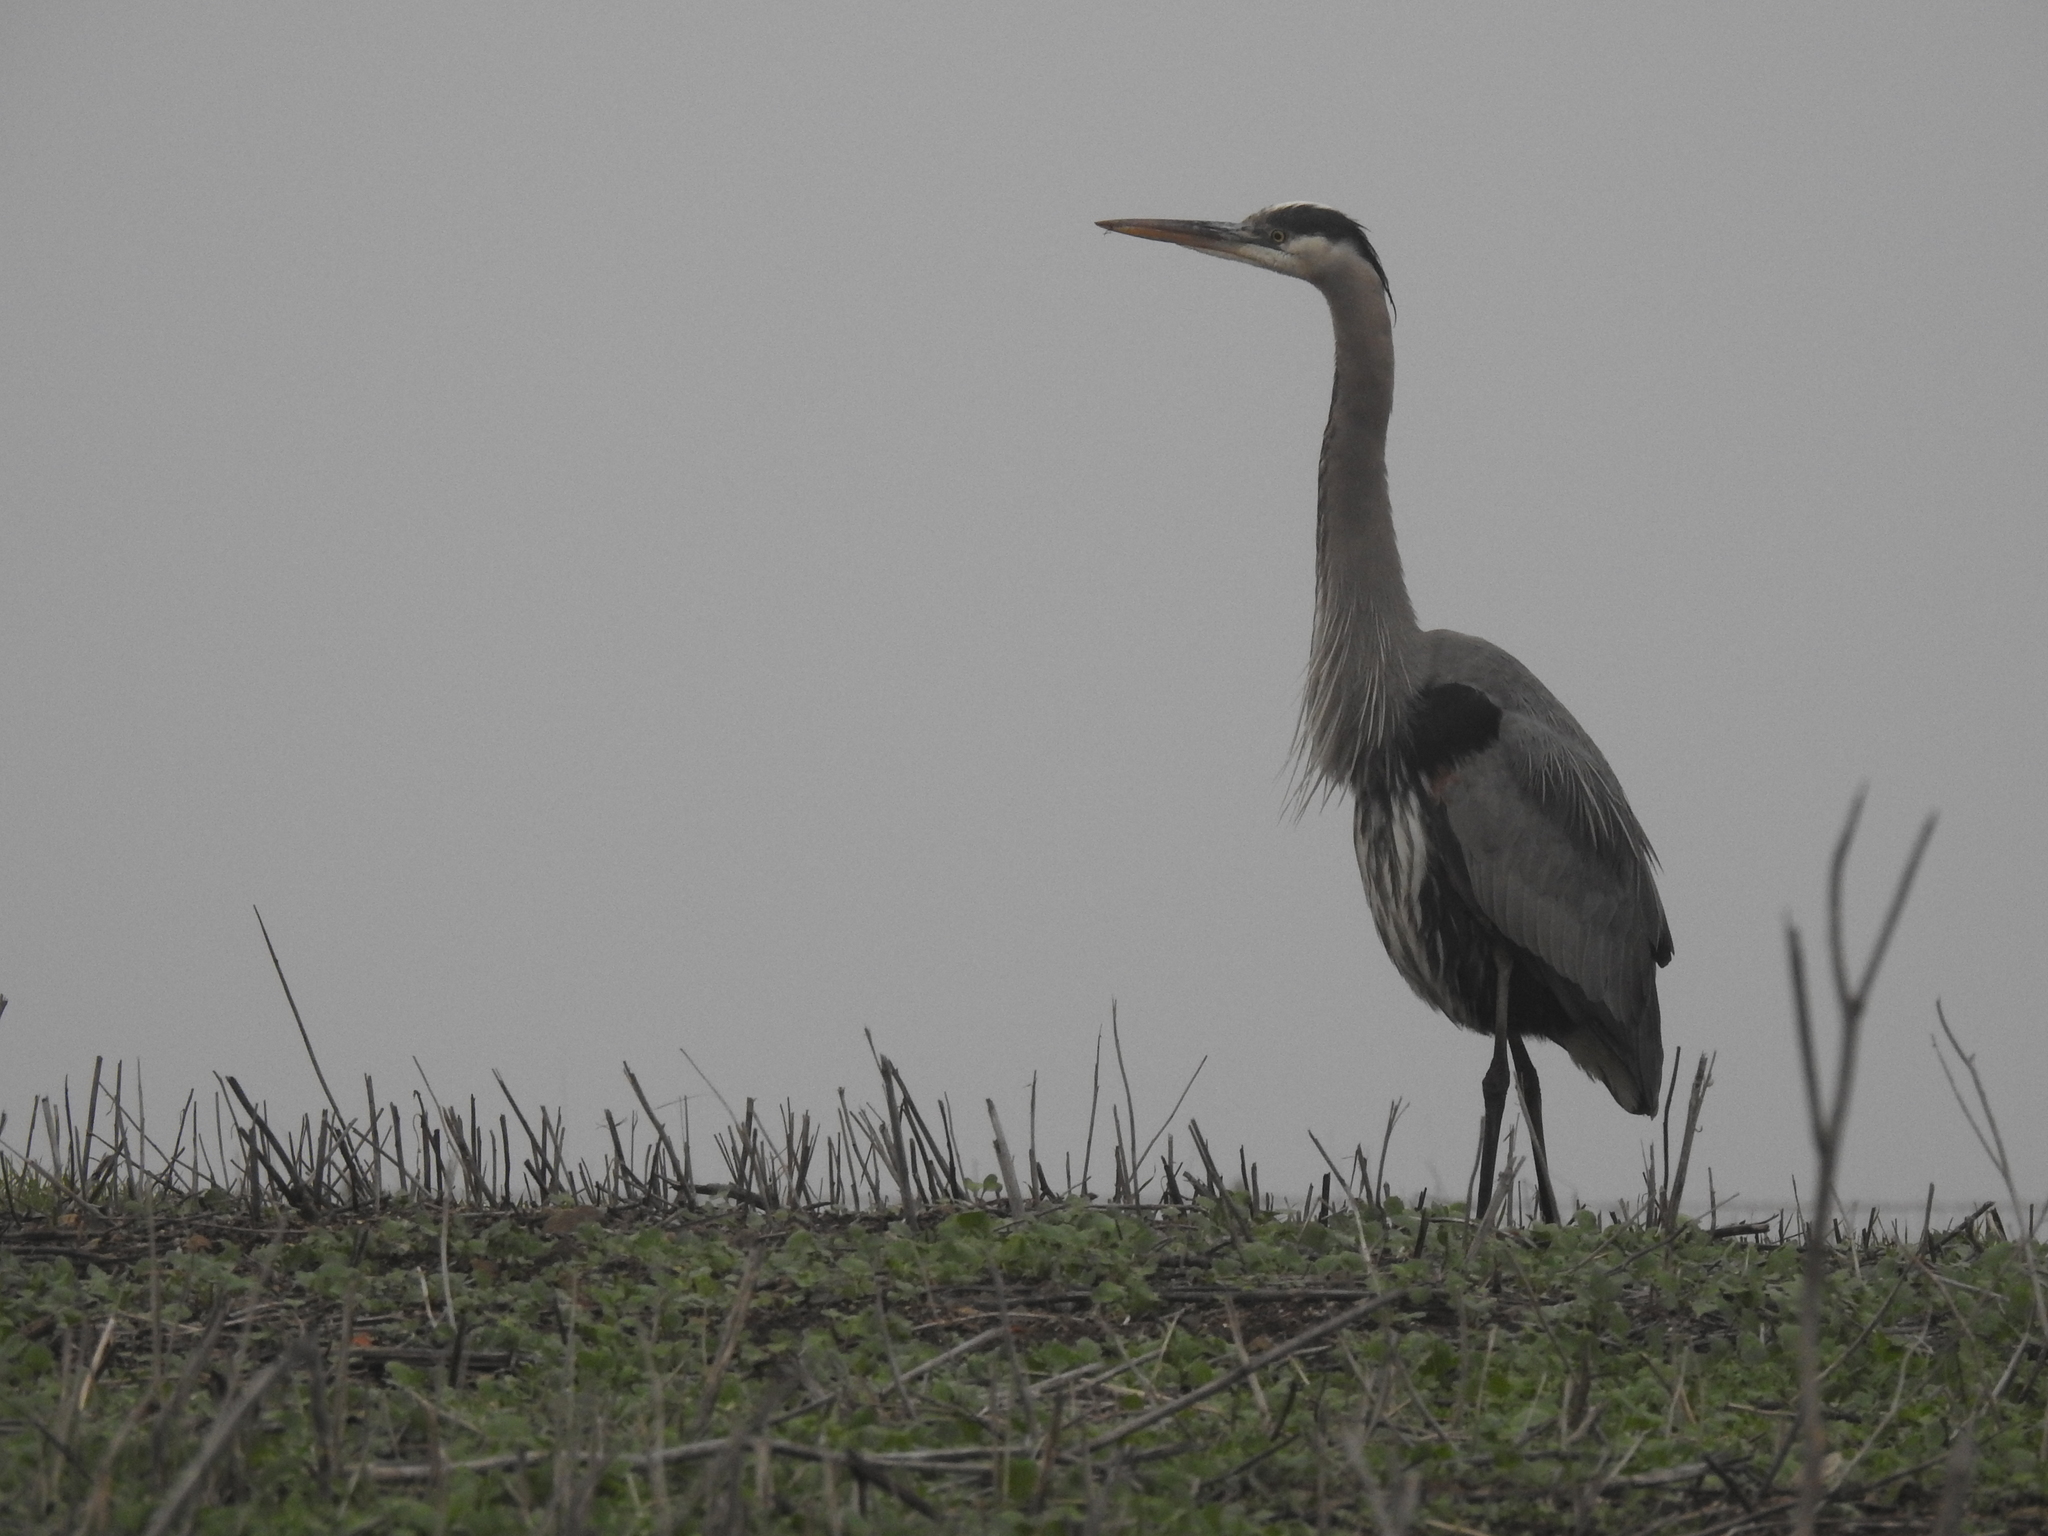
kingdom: Animalia
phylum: Chordata
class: Aves
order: Pelecaniformes
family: Ardeidae
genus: Ardea
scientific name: Ardea herodias
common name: Great blue heron
